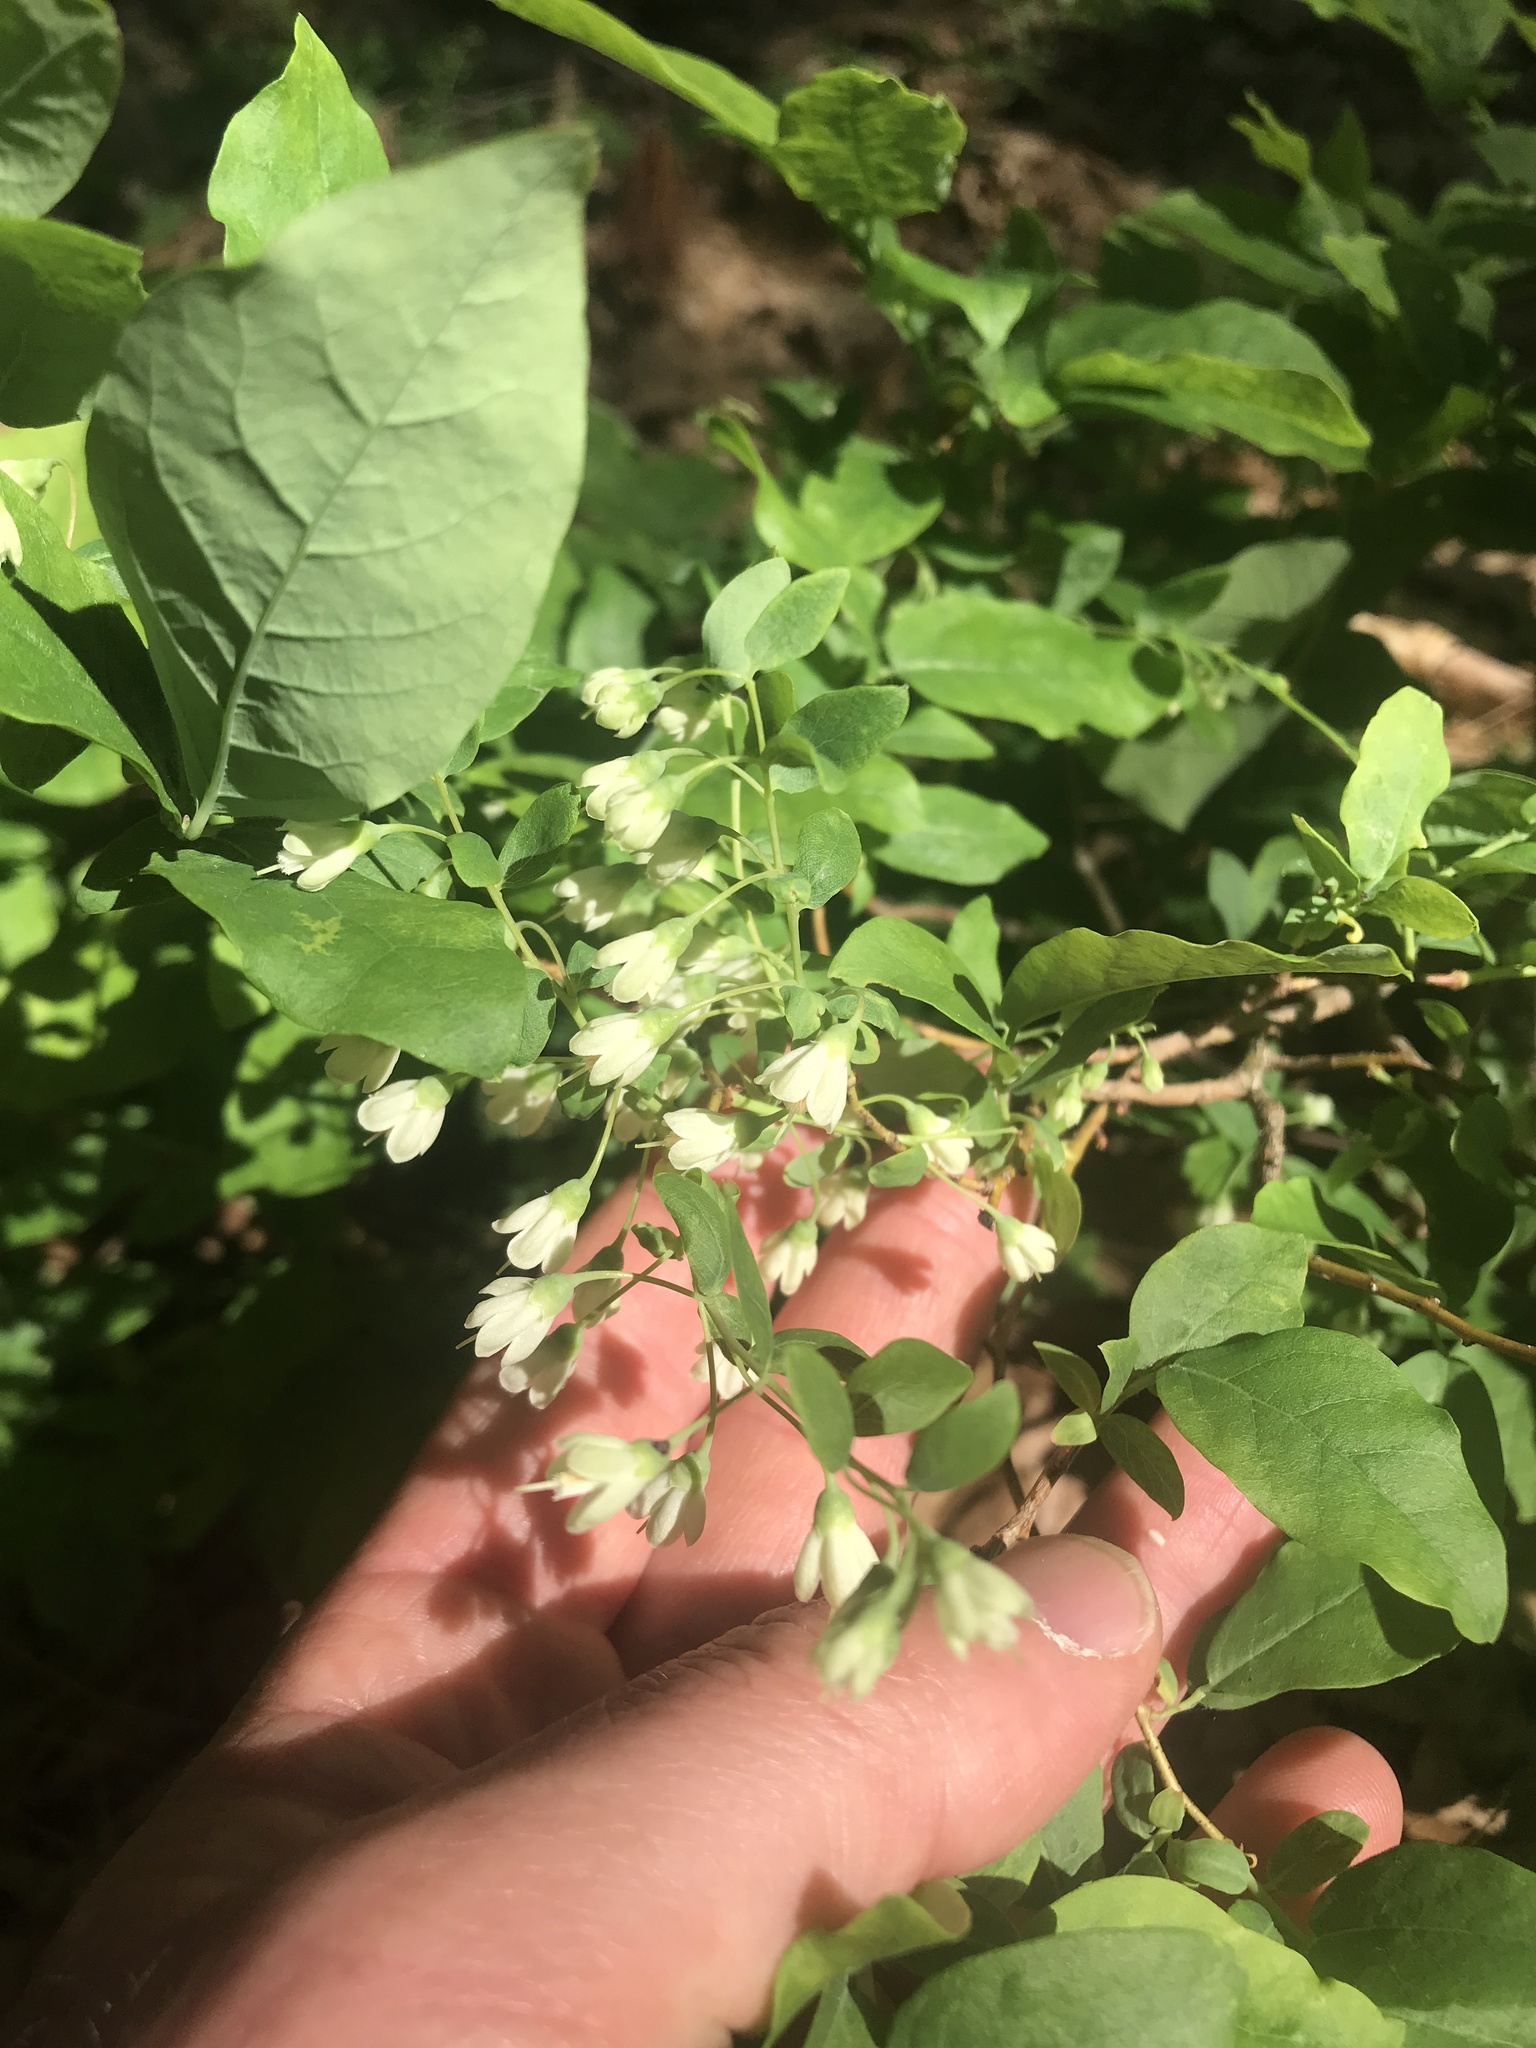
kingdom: Plantae
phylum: Tracheophyta
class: Magnoliopsida
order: Ericales
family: Ericaceae
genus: Vaccinium
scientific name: Vaccinium stamineum
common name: Deerberry
